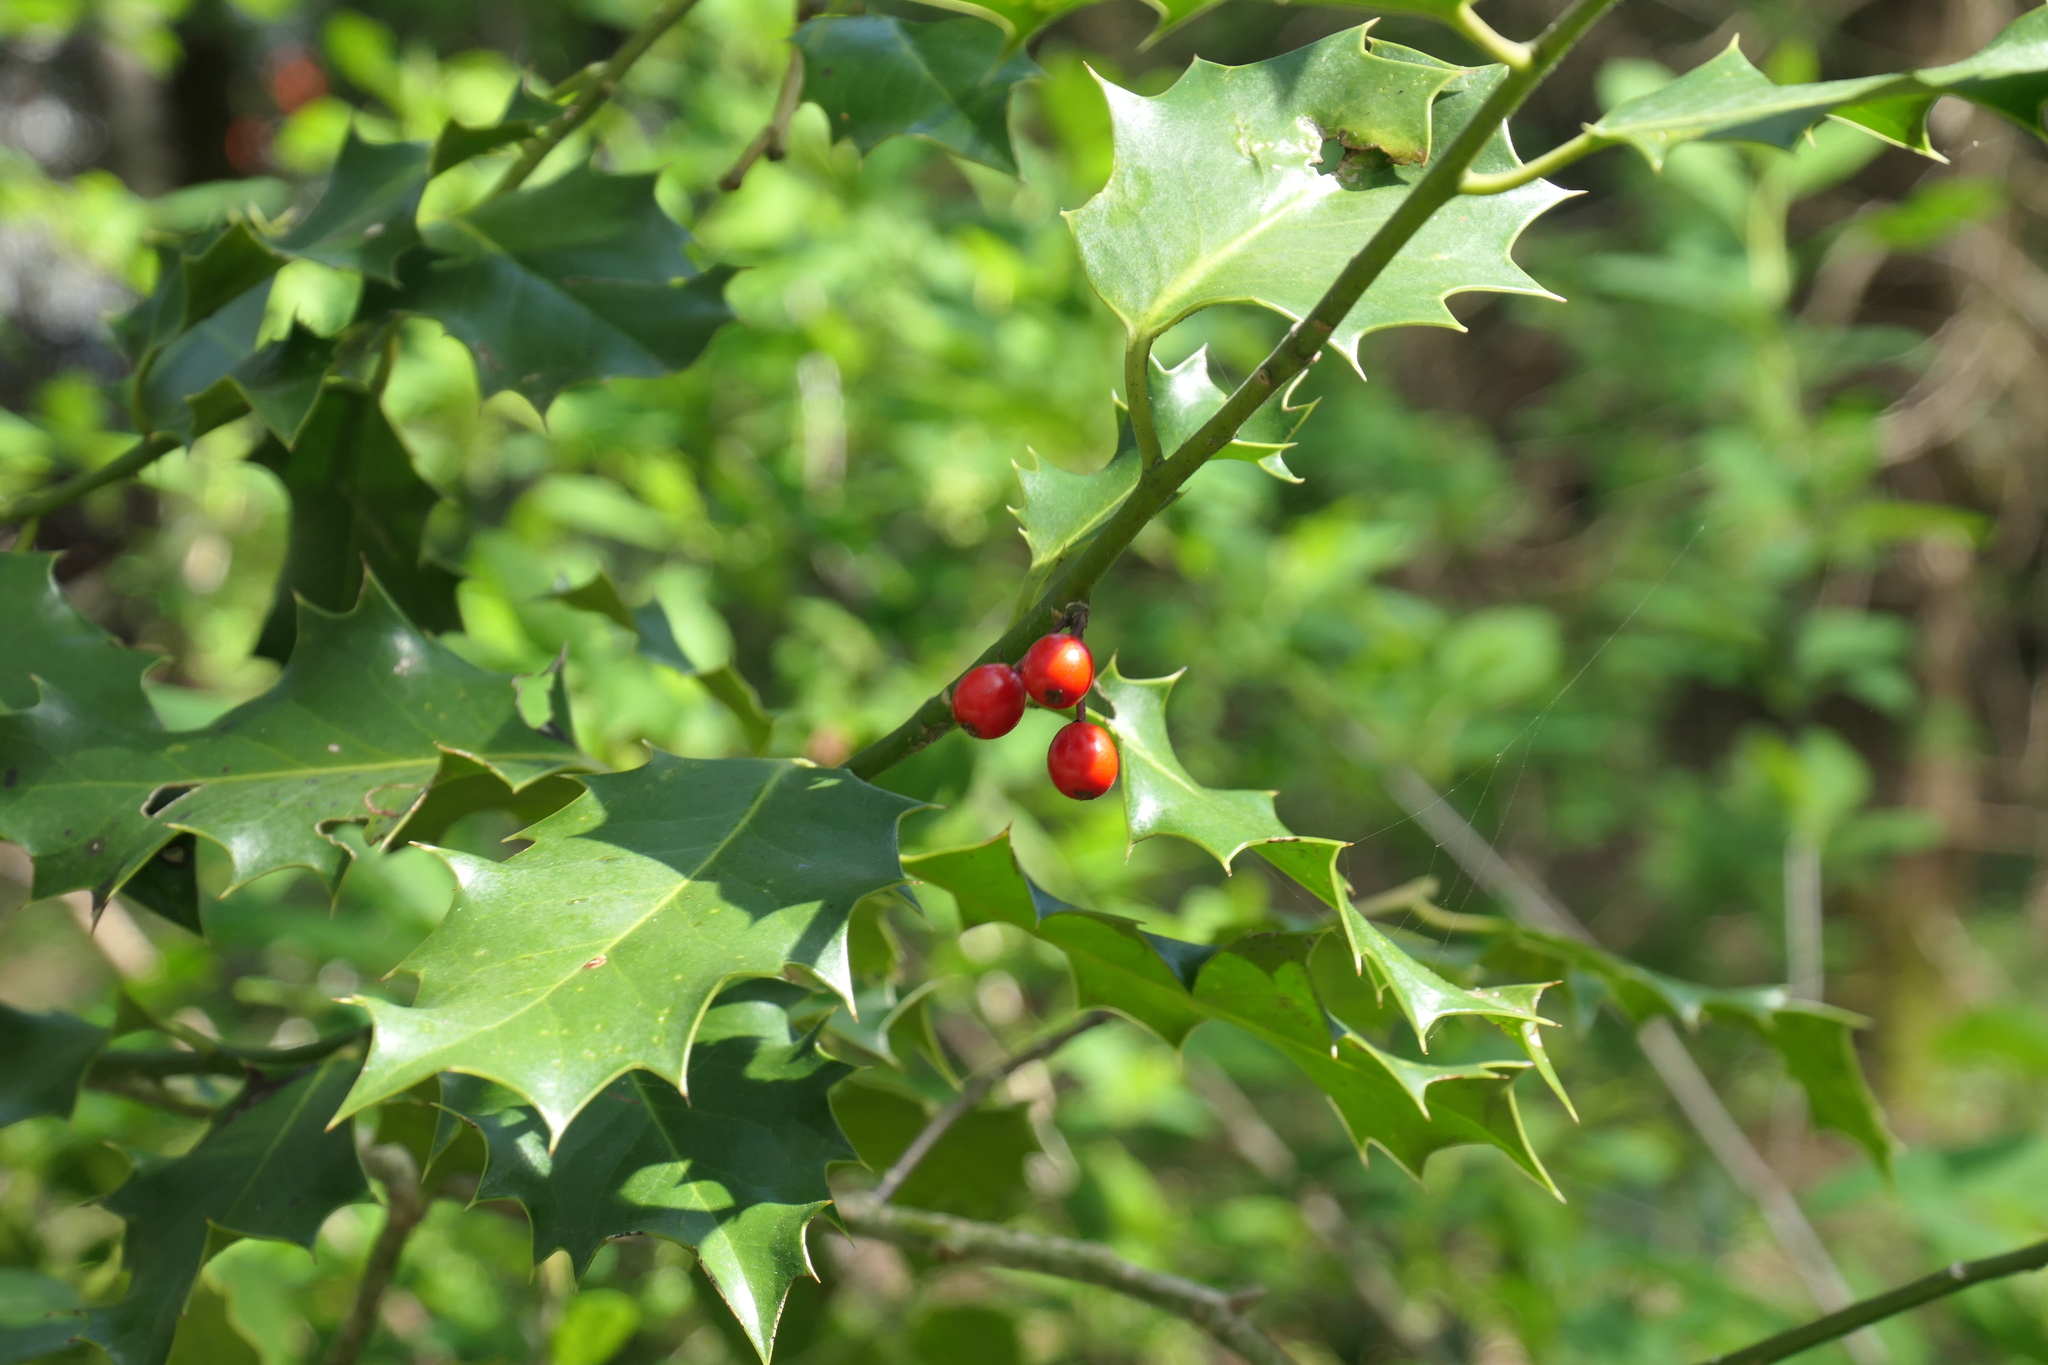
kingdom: Plantae
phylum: Tracheophyta
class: Magnoliopsida
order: Aquifoliales
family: Aquifoliaceae
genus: Ilex
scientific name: Ilex aquifolium
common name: English holly
